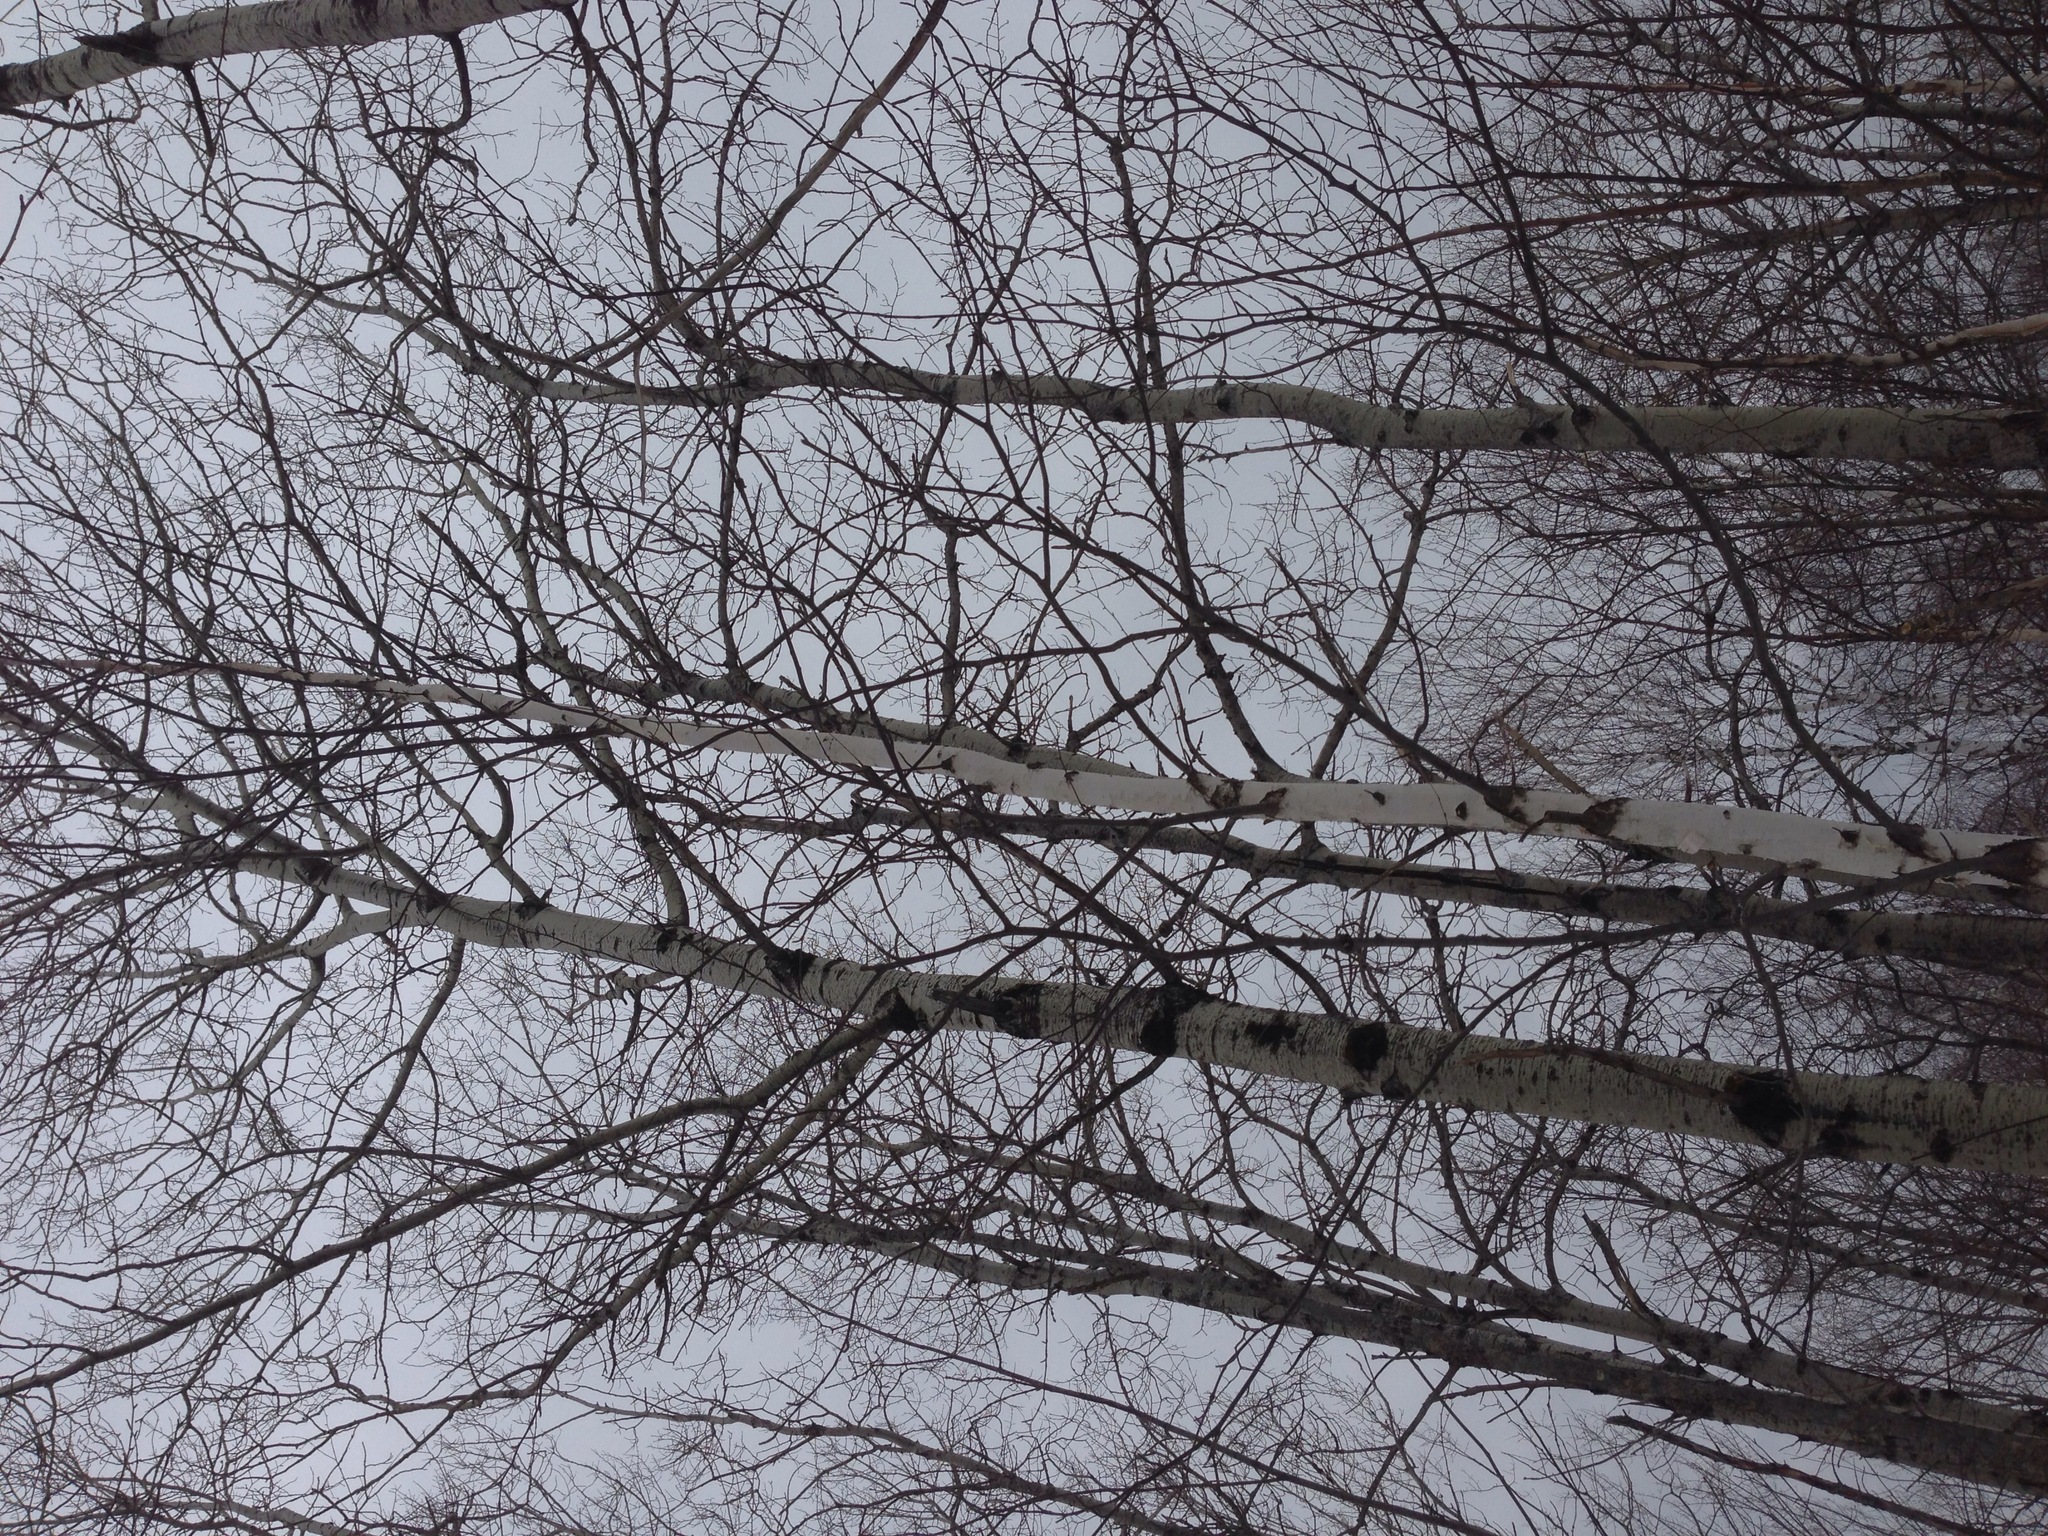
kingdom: Plantae
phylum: Tracheophyta
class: Magnoliopsida
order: Malpighiales
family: Salicaceae
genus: Populus
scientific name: Populus tremuloides
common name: Quaking aspen
